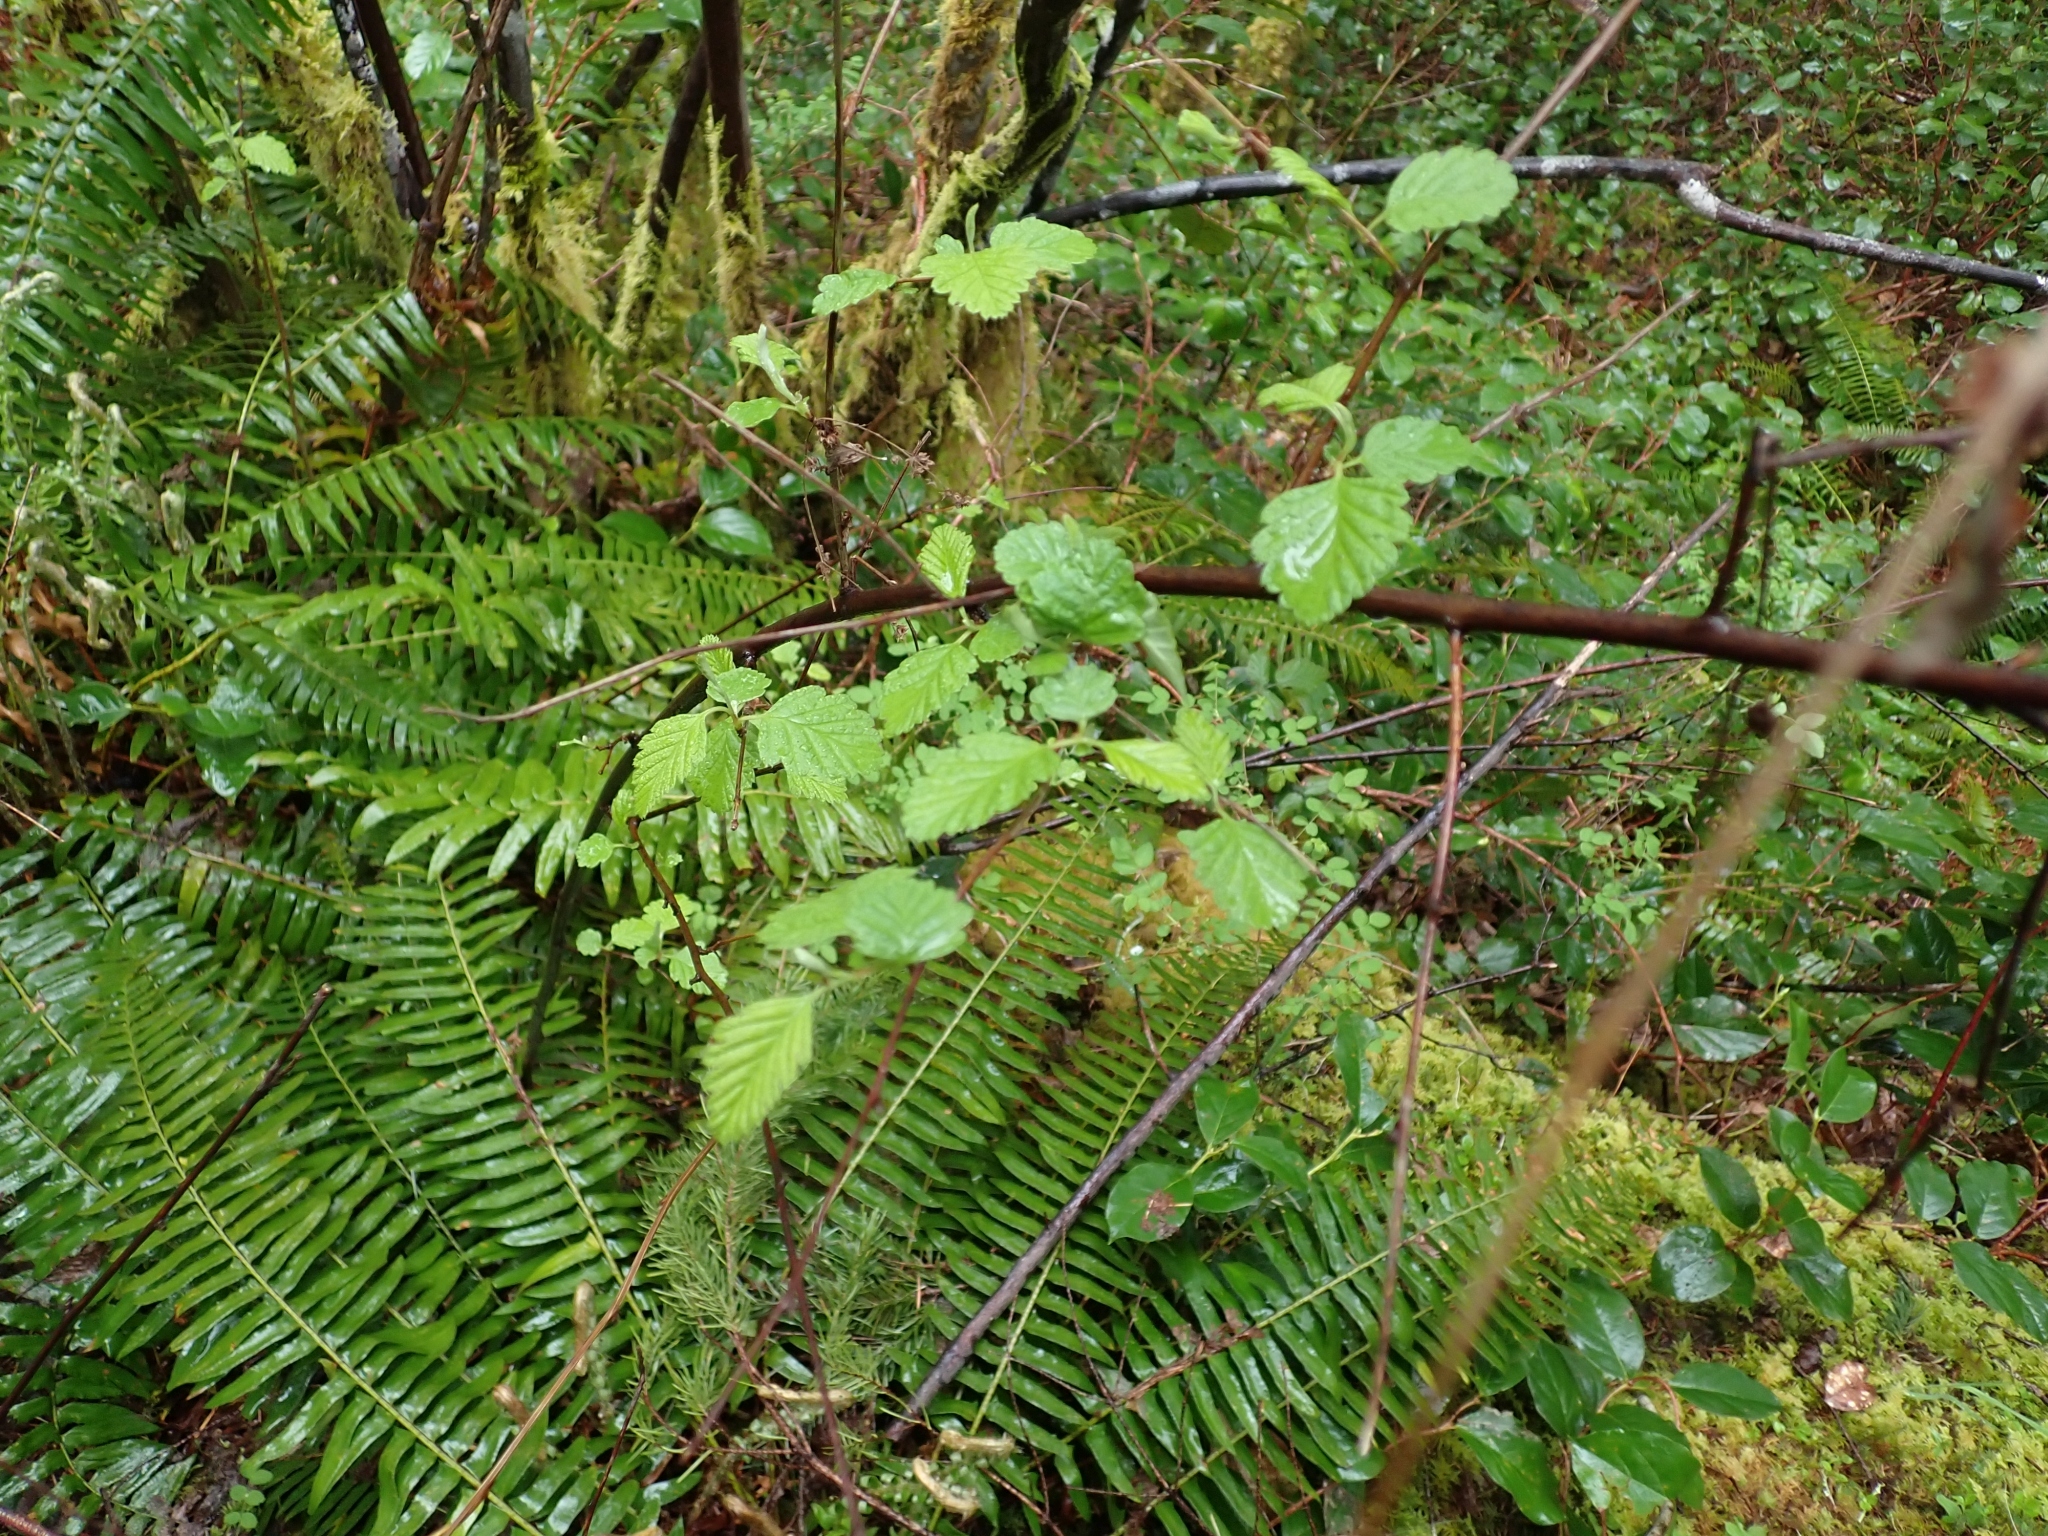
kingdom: Plantae
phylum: Tracheophyta
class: Magnoliopsida
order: Rosales
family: Rosaceae
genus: Holodiscus
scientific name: Holodiscus discolor
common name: Oceanspray
